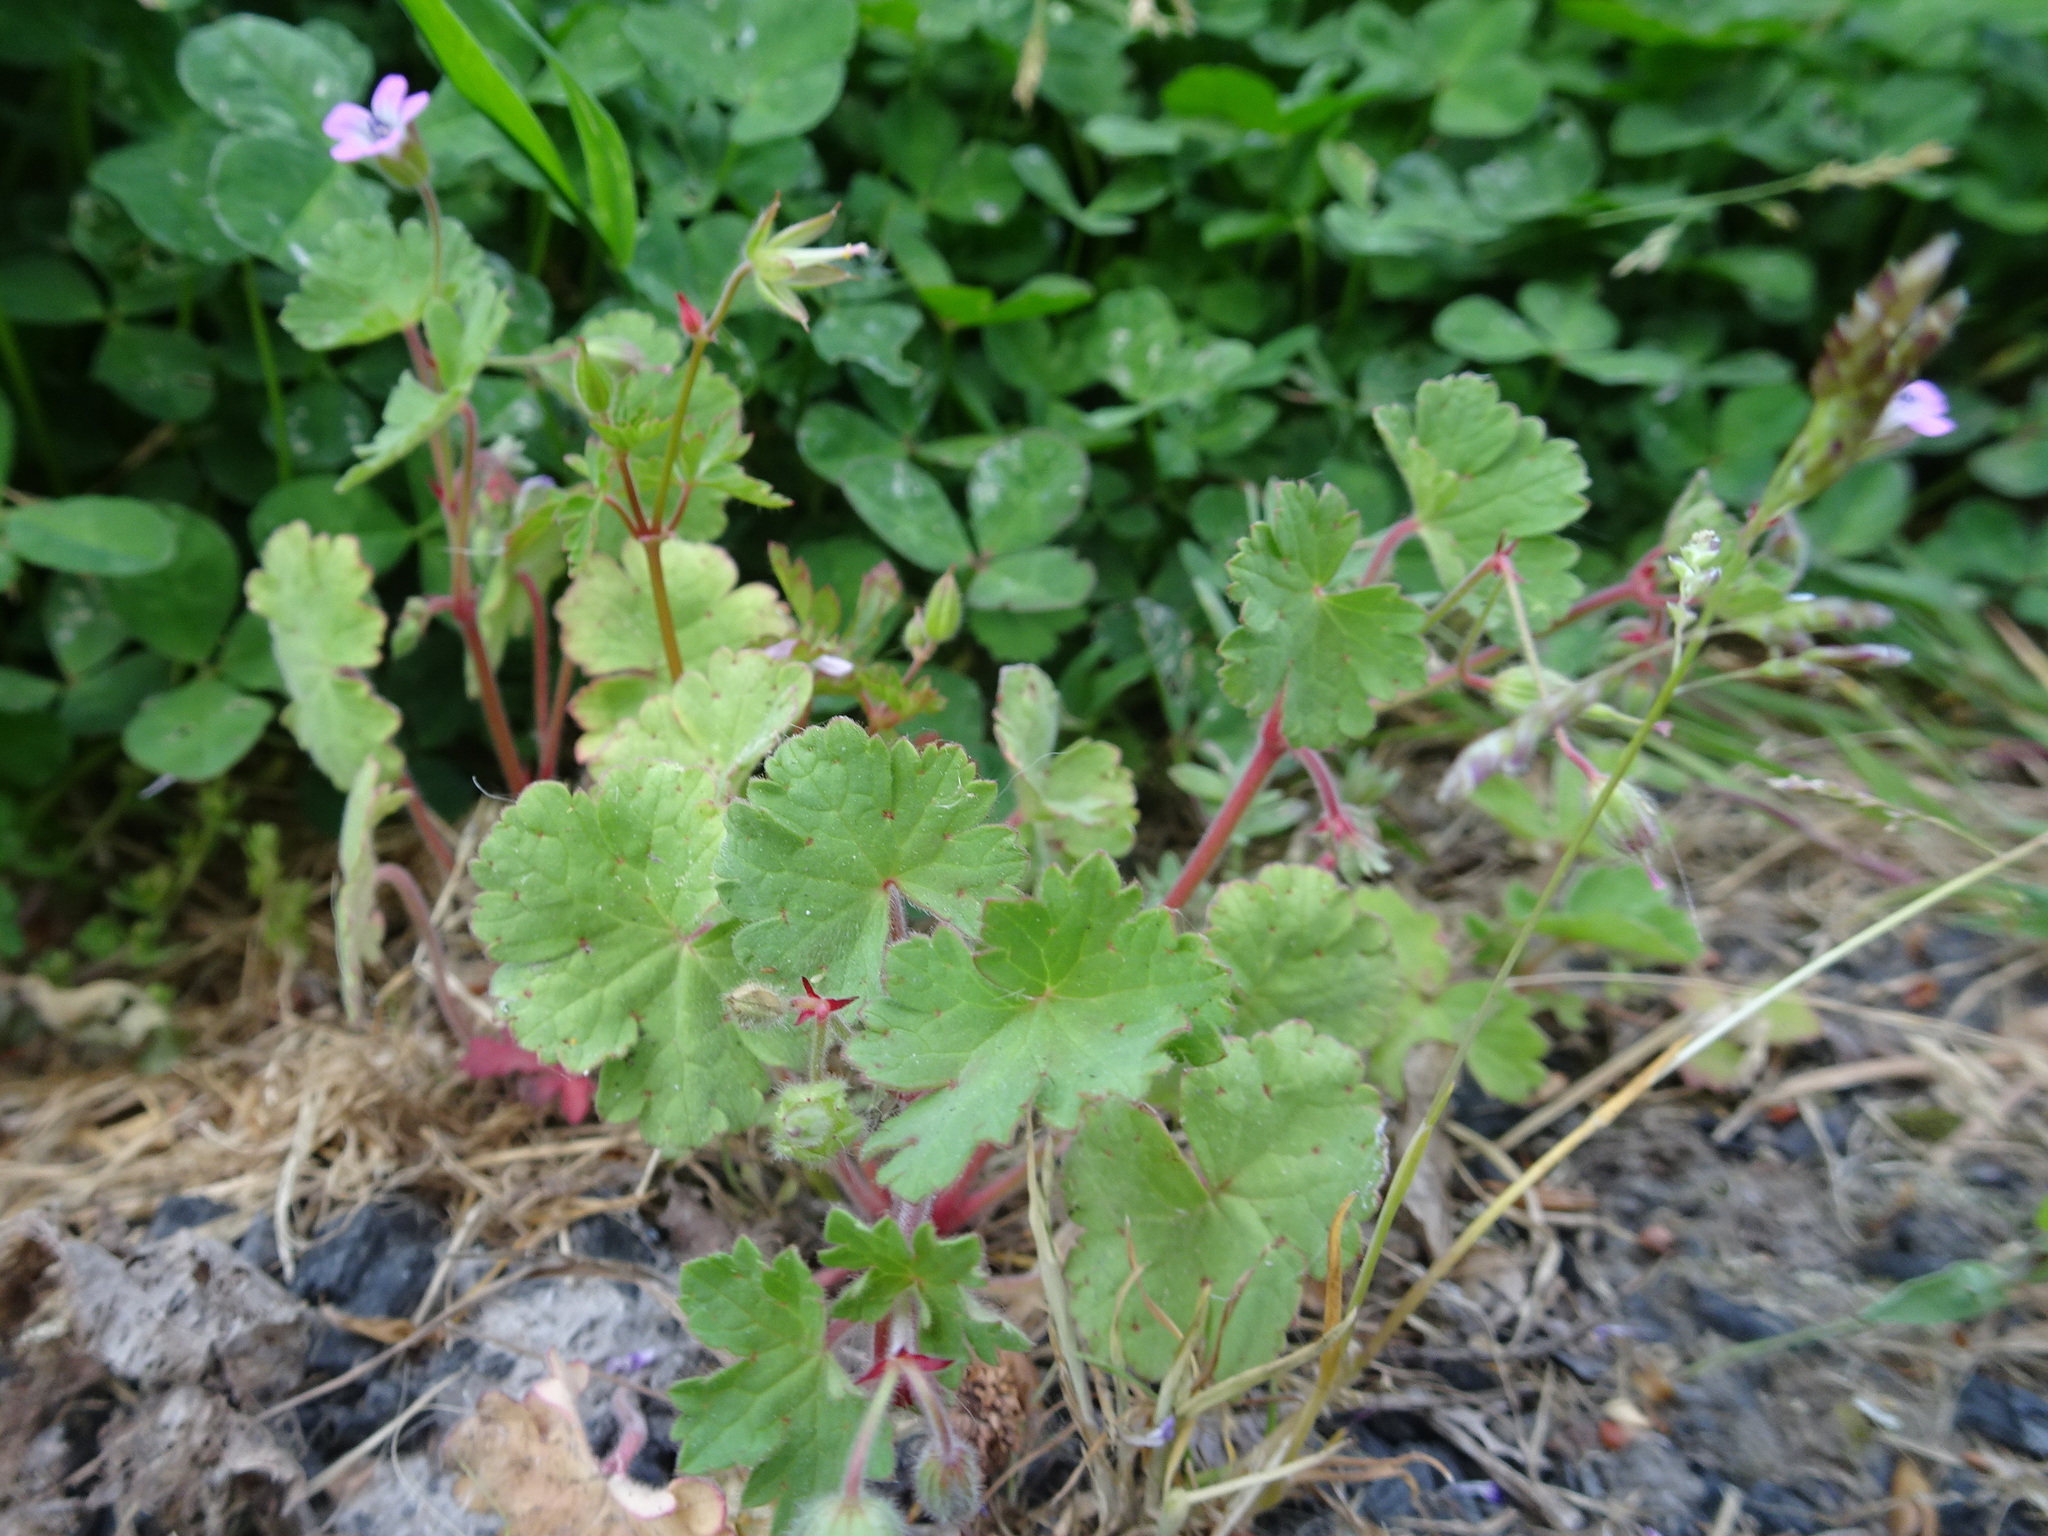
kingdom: Plantae
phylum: Tracheophyta
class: Magnoliopsida
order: Geraniales
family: Geraniaceae
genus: Geranium
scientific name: Geranium rotundifolium
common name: Round-leaved crane's-bill
